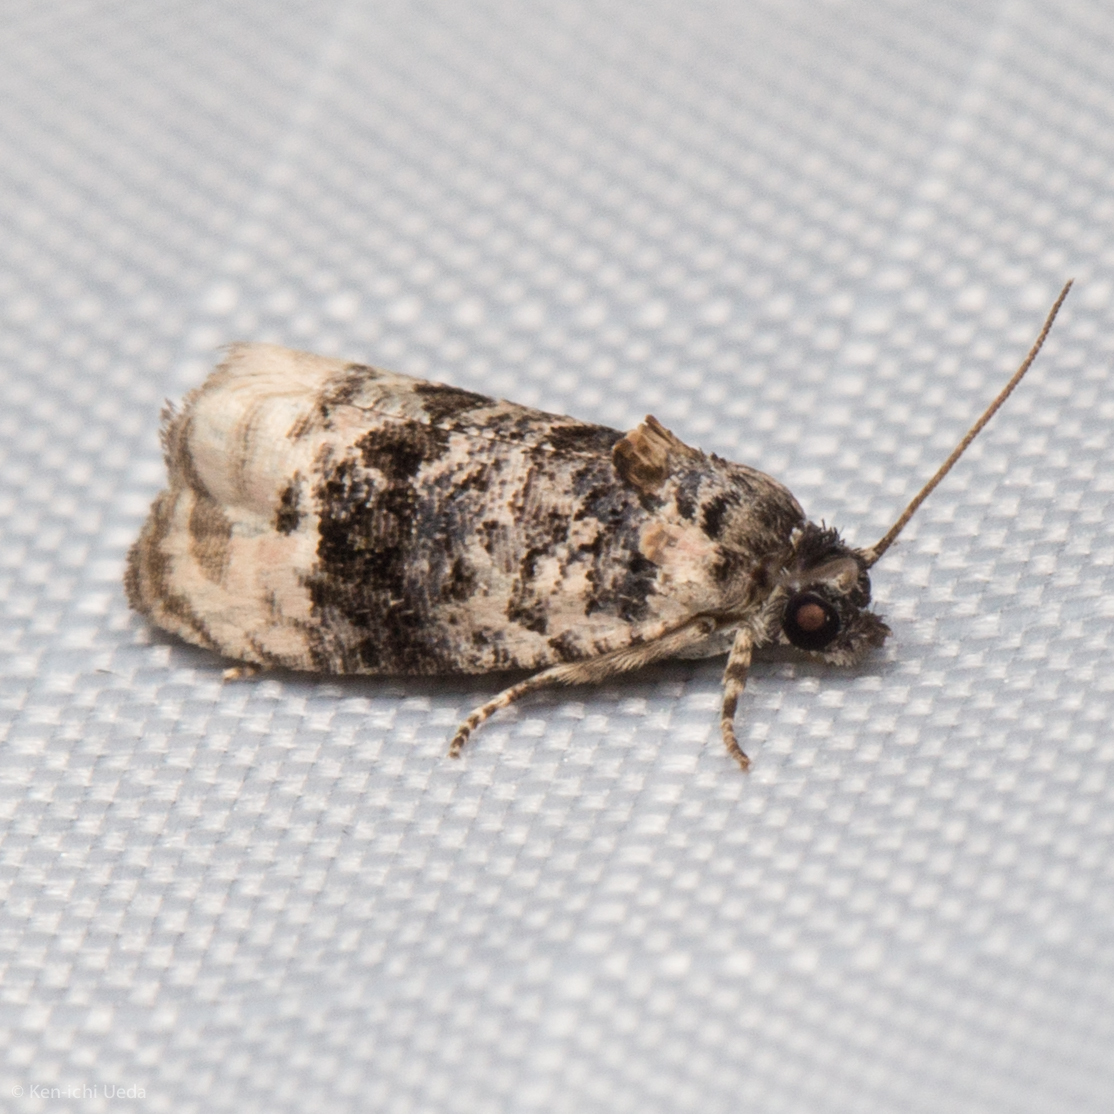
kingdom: Animalia
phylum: Arthropoda
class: Insecta
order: Lepidoptera
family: Tortricidae
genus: Hedya
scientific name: Hedya separatana
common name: Pink-washed leafroller moth
